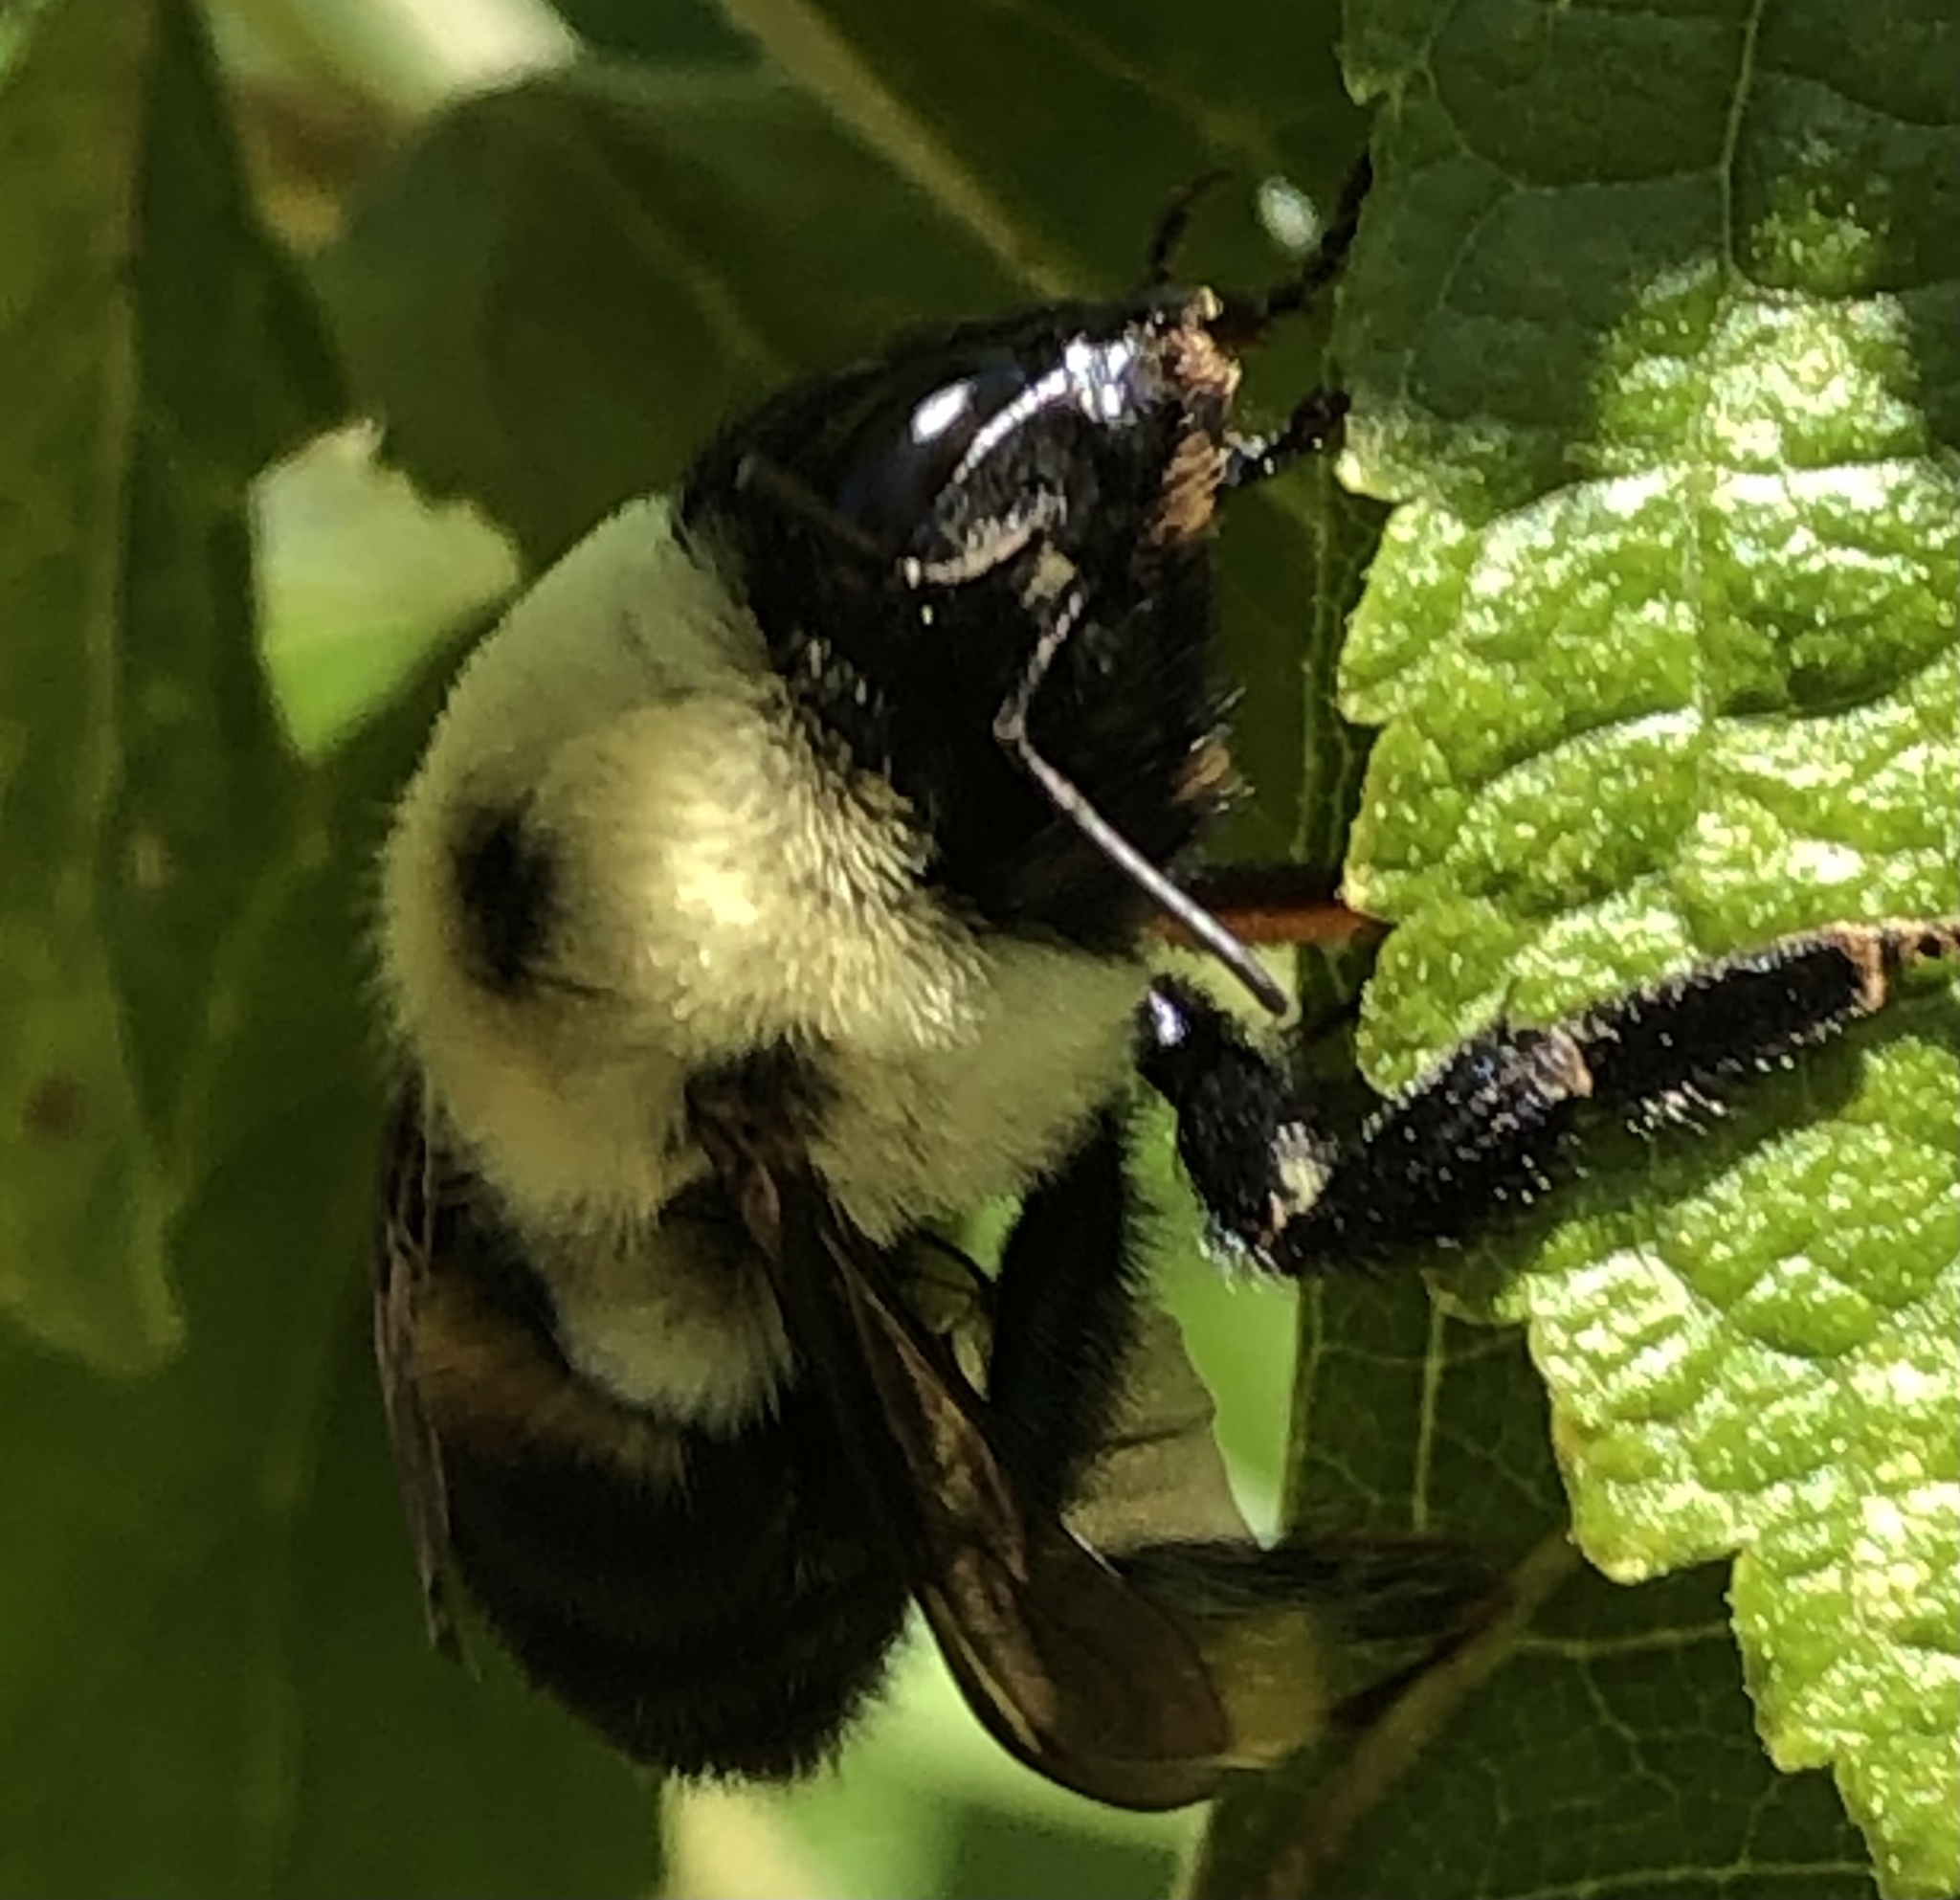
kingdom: Animalia
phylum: Arthropoda
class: Insecta
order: Hymenoptera
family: Apidae
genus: Bombus
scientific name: Bombus griseocollis
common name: Brown-belted bumble bee
